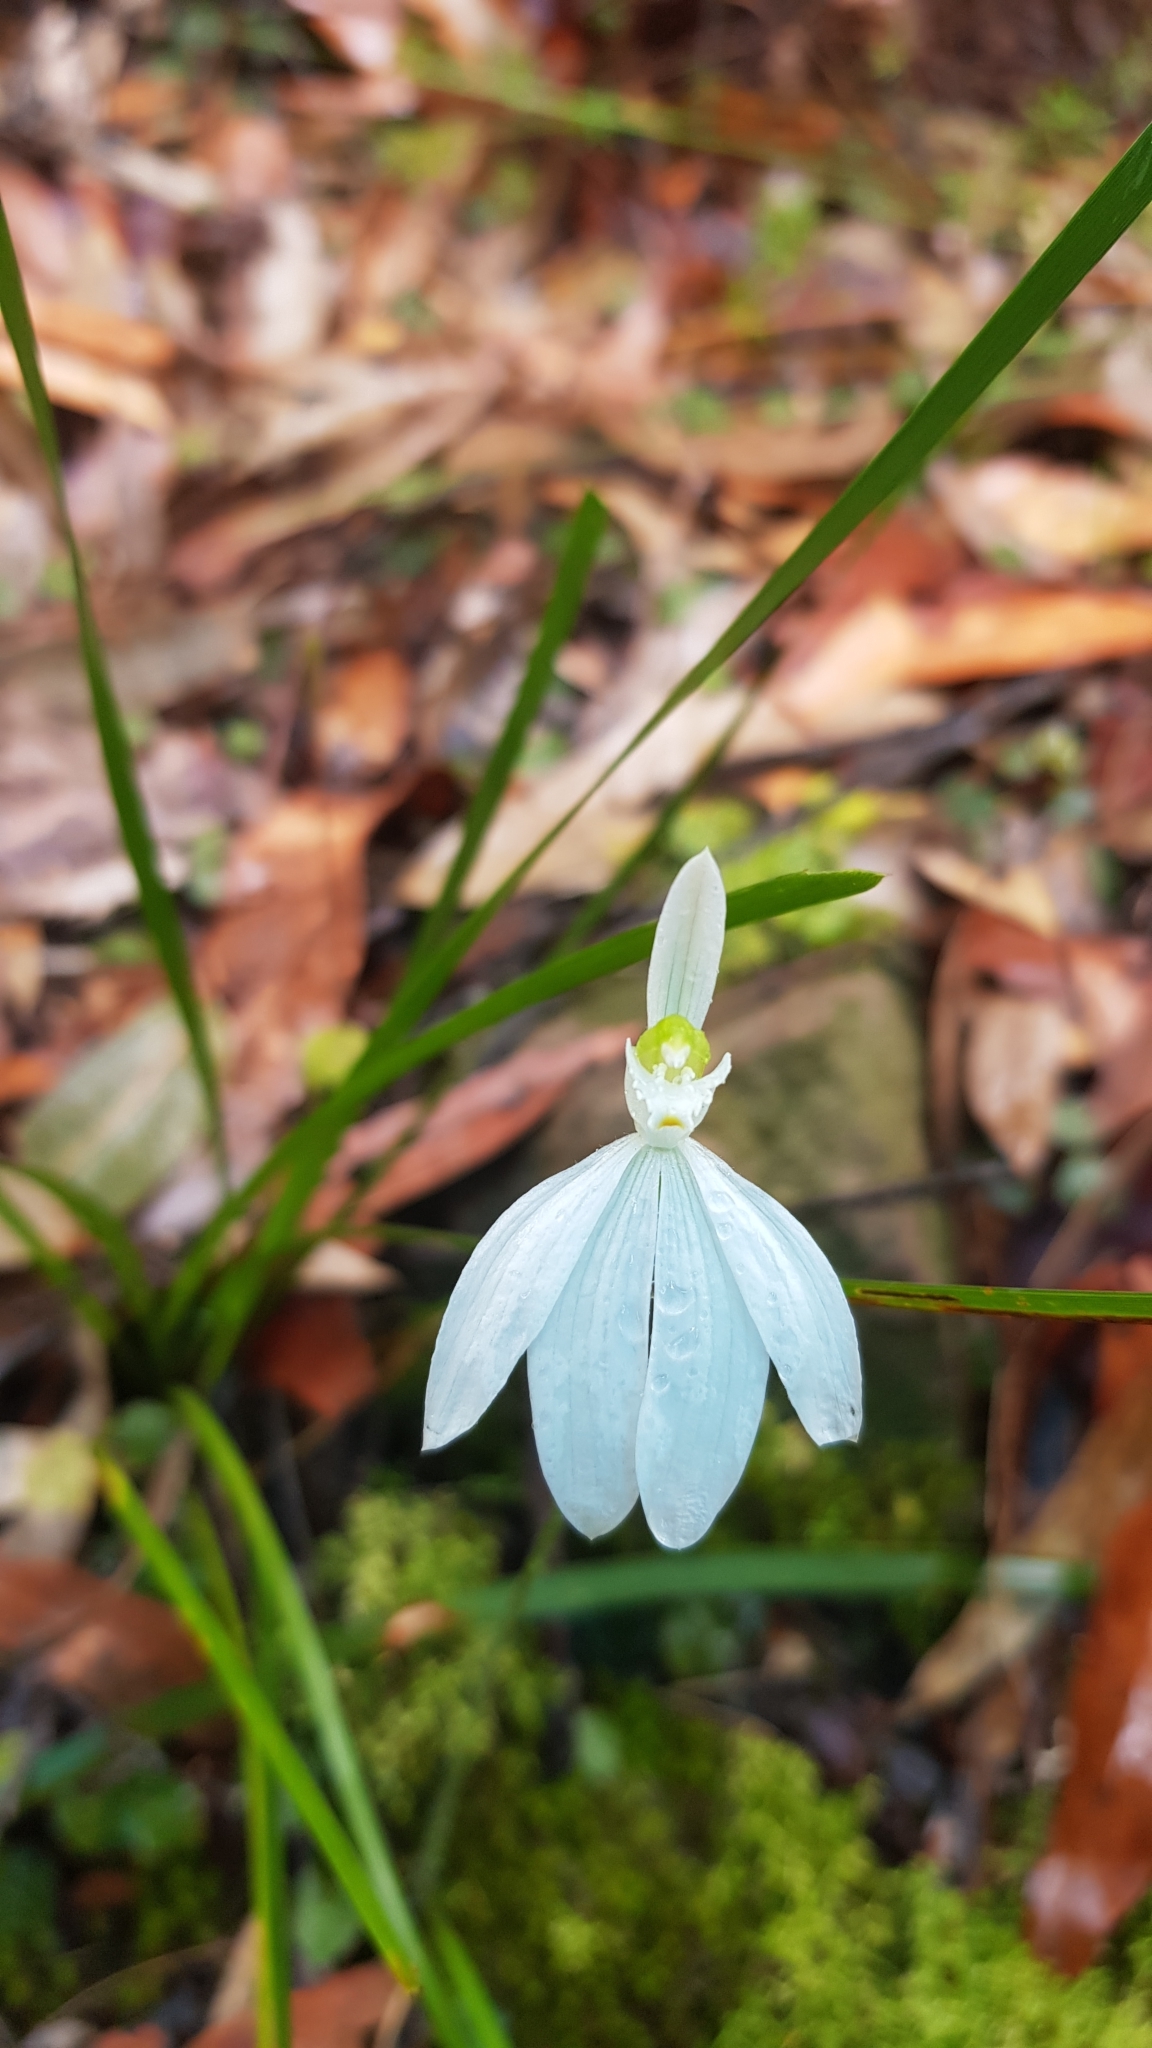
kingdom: Plantae
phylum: Tracheophyta
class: Liliopsida
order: Asparagales
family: Orchidaceae
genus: Caladenia
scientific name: Caladenia catenata
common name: White caladenia
